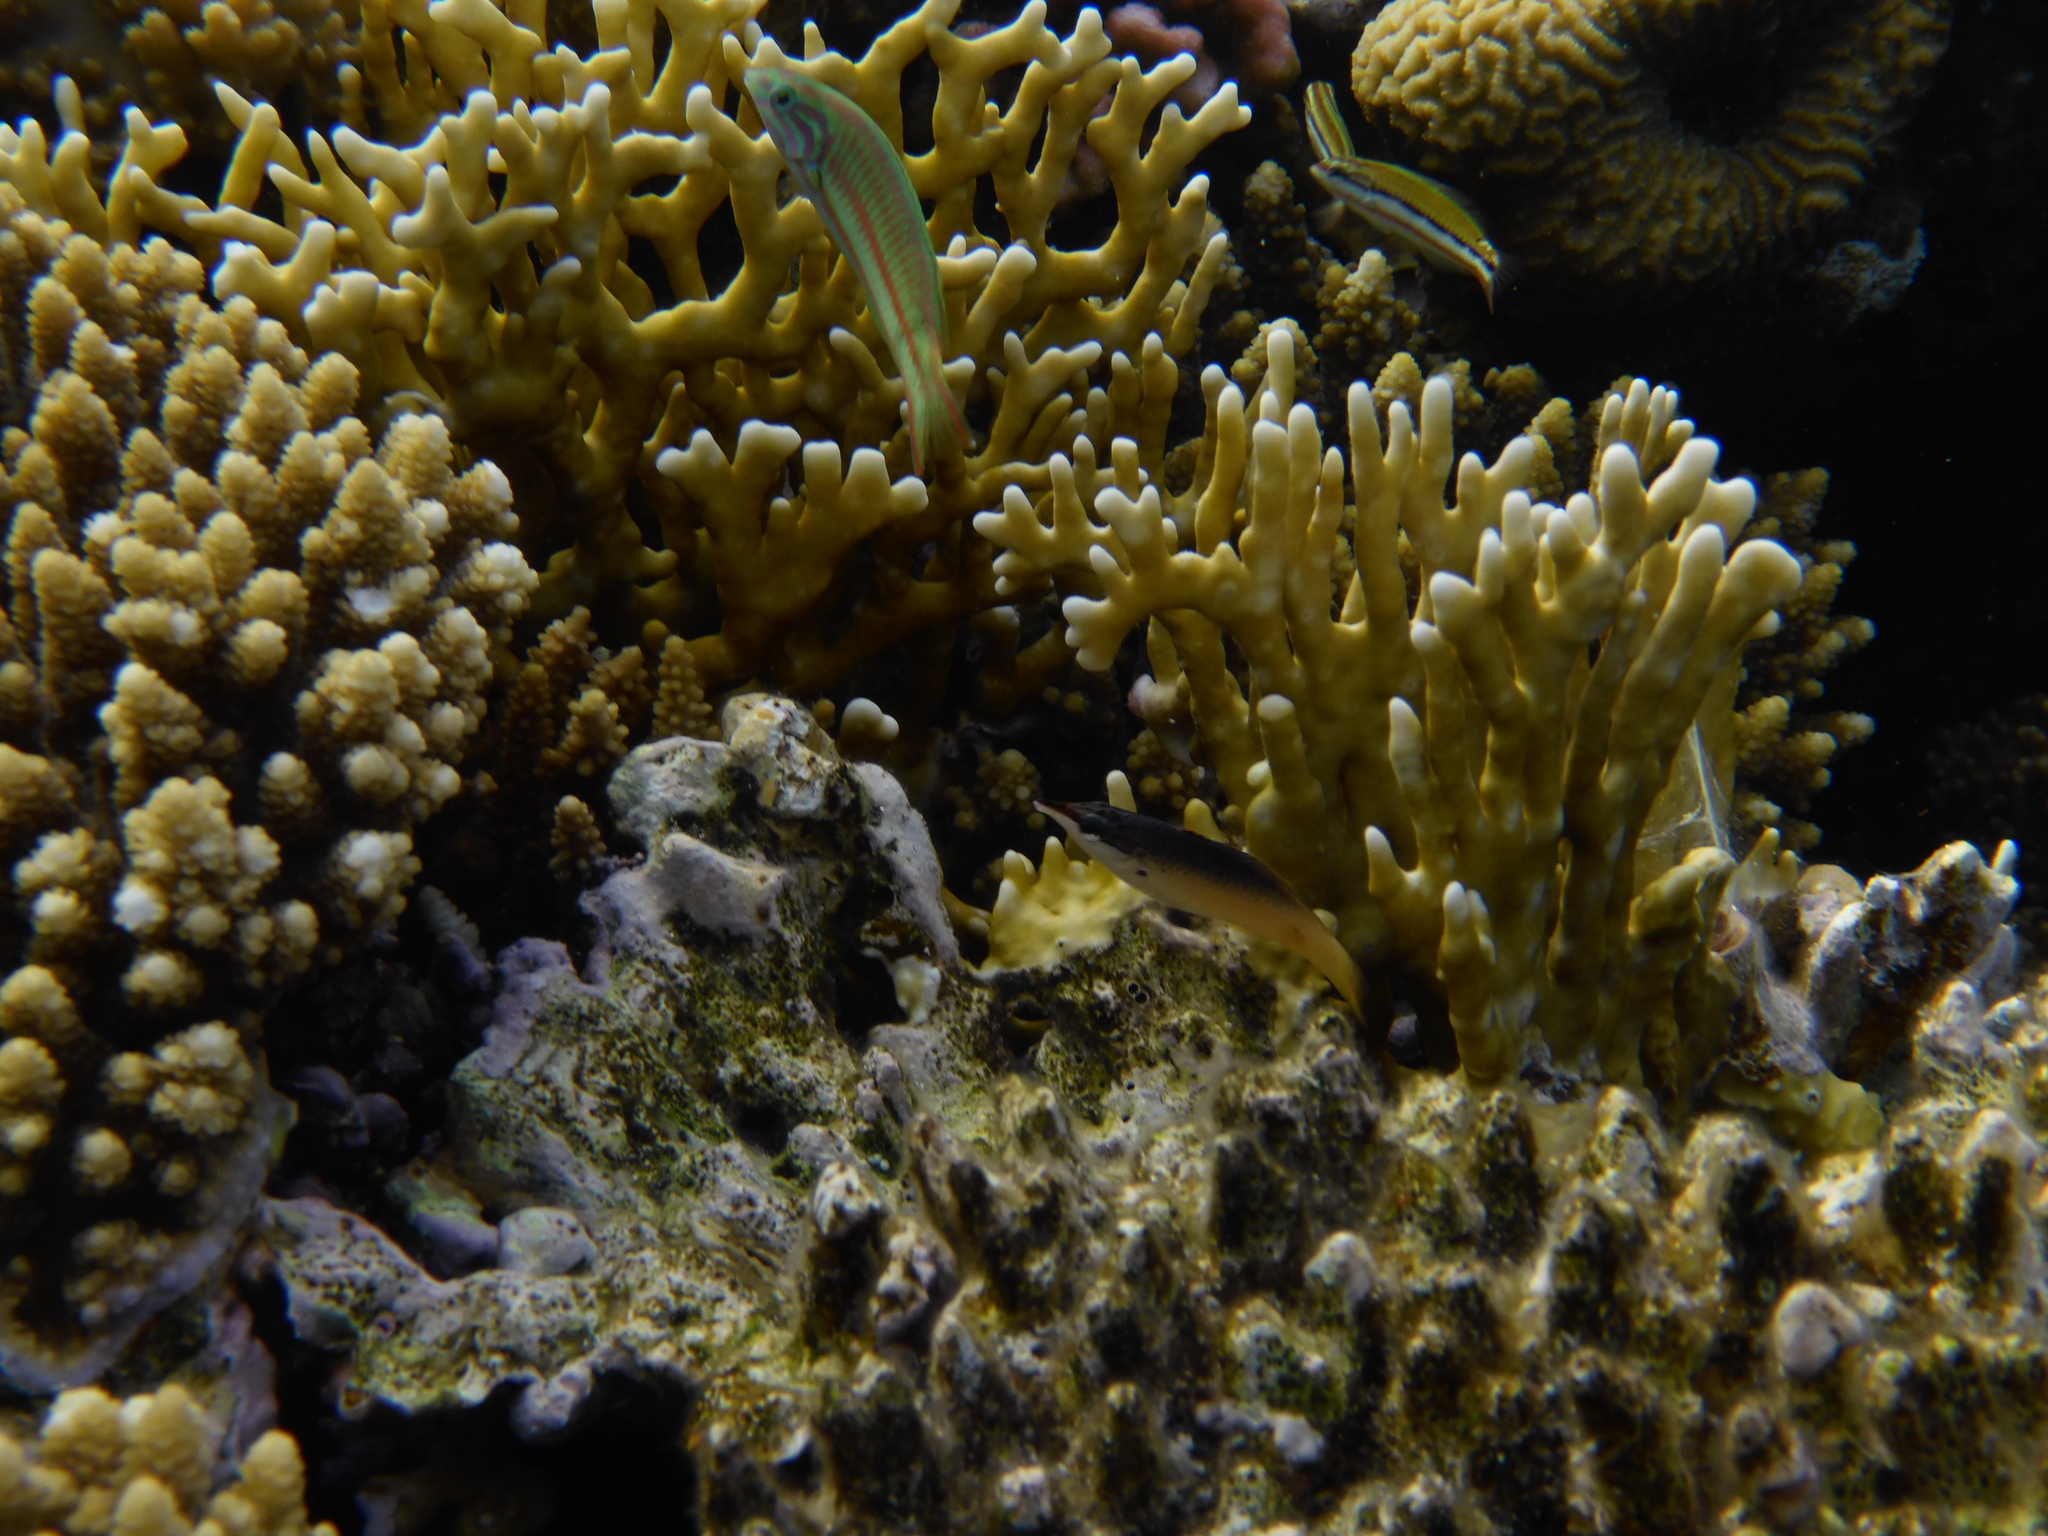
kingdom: Animalia
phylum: Chordata
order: Perciformes
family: Labridae
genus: Gomphosus
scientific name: Gomphosus klunzingeri
